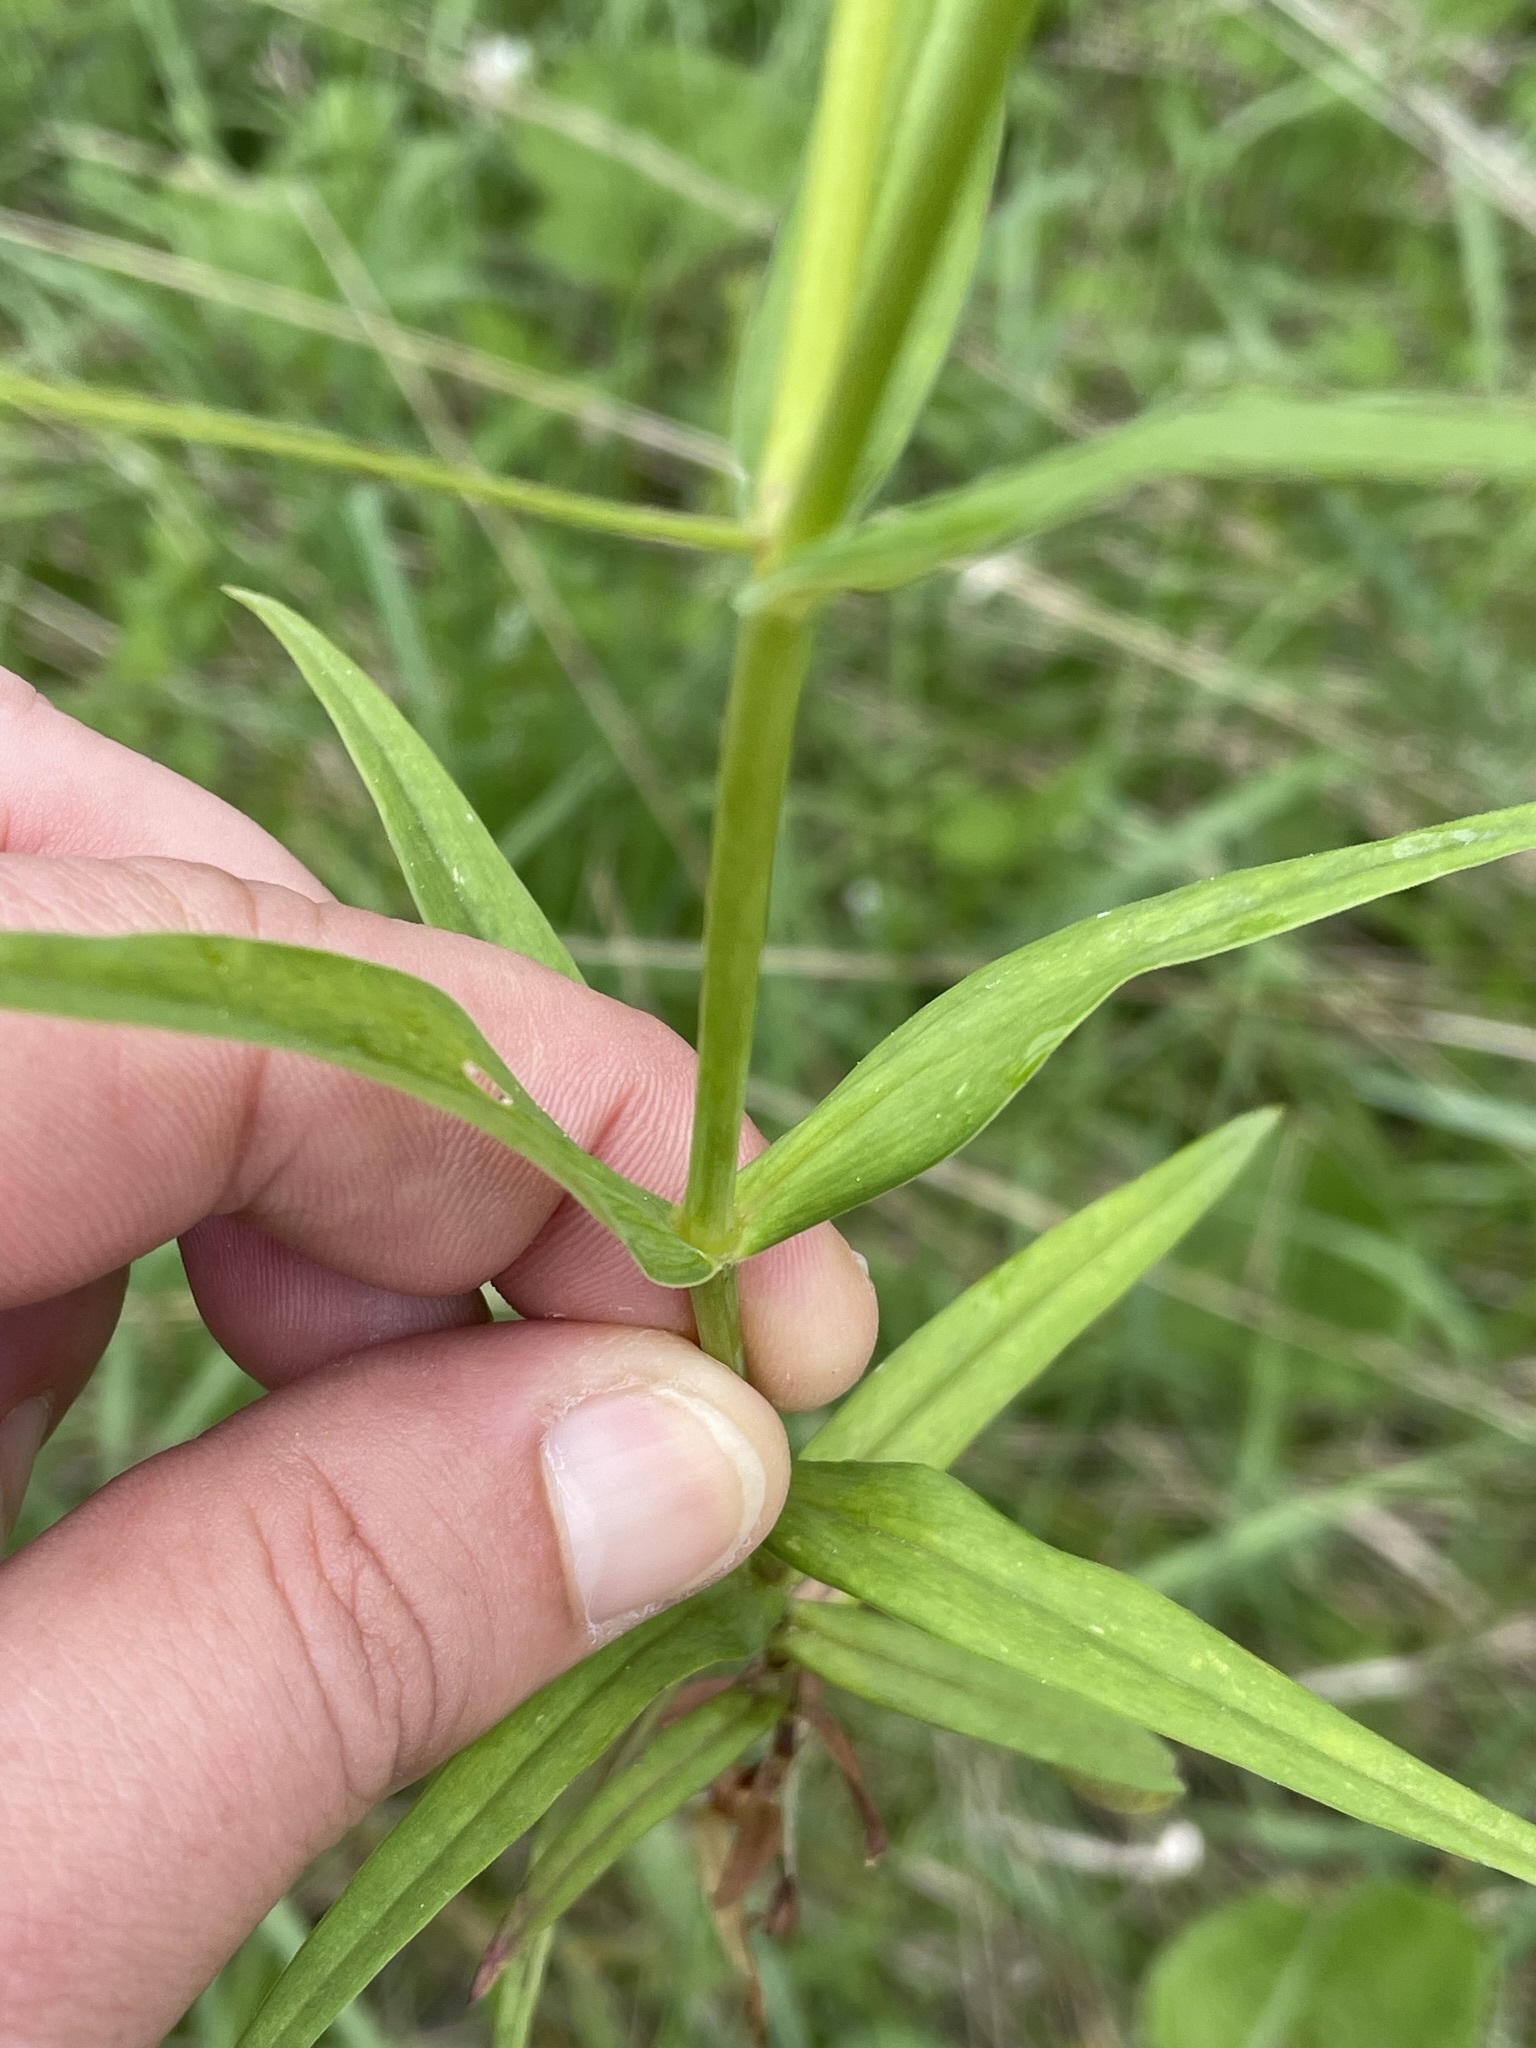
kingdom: Plantae
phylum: Tracheophyta
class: Magnoliopsida
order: Caryophyllales
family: Caryophyllaceae
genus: Rabelera
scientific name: Rabelera holostea
